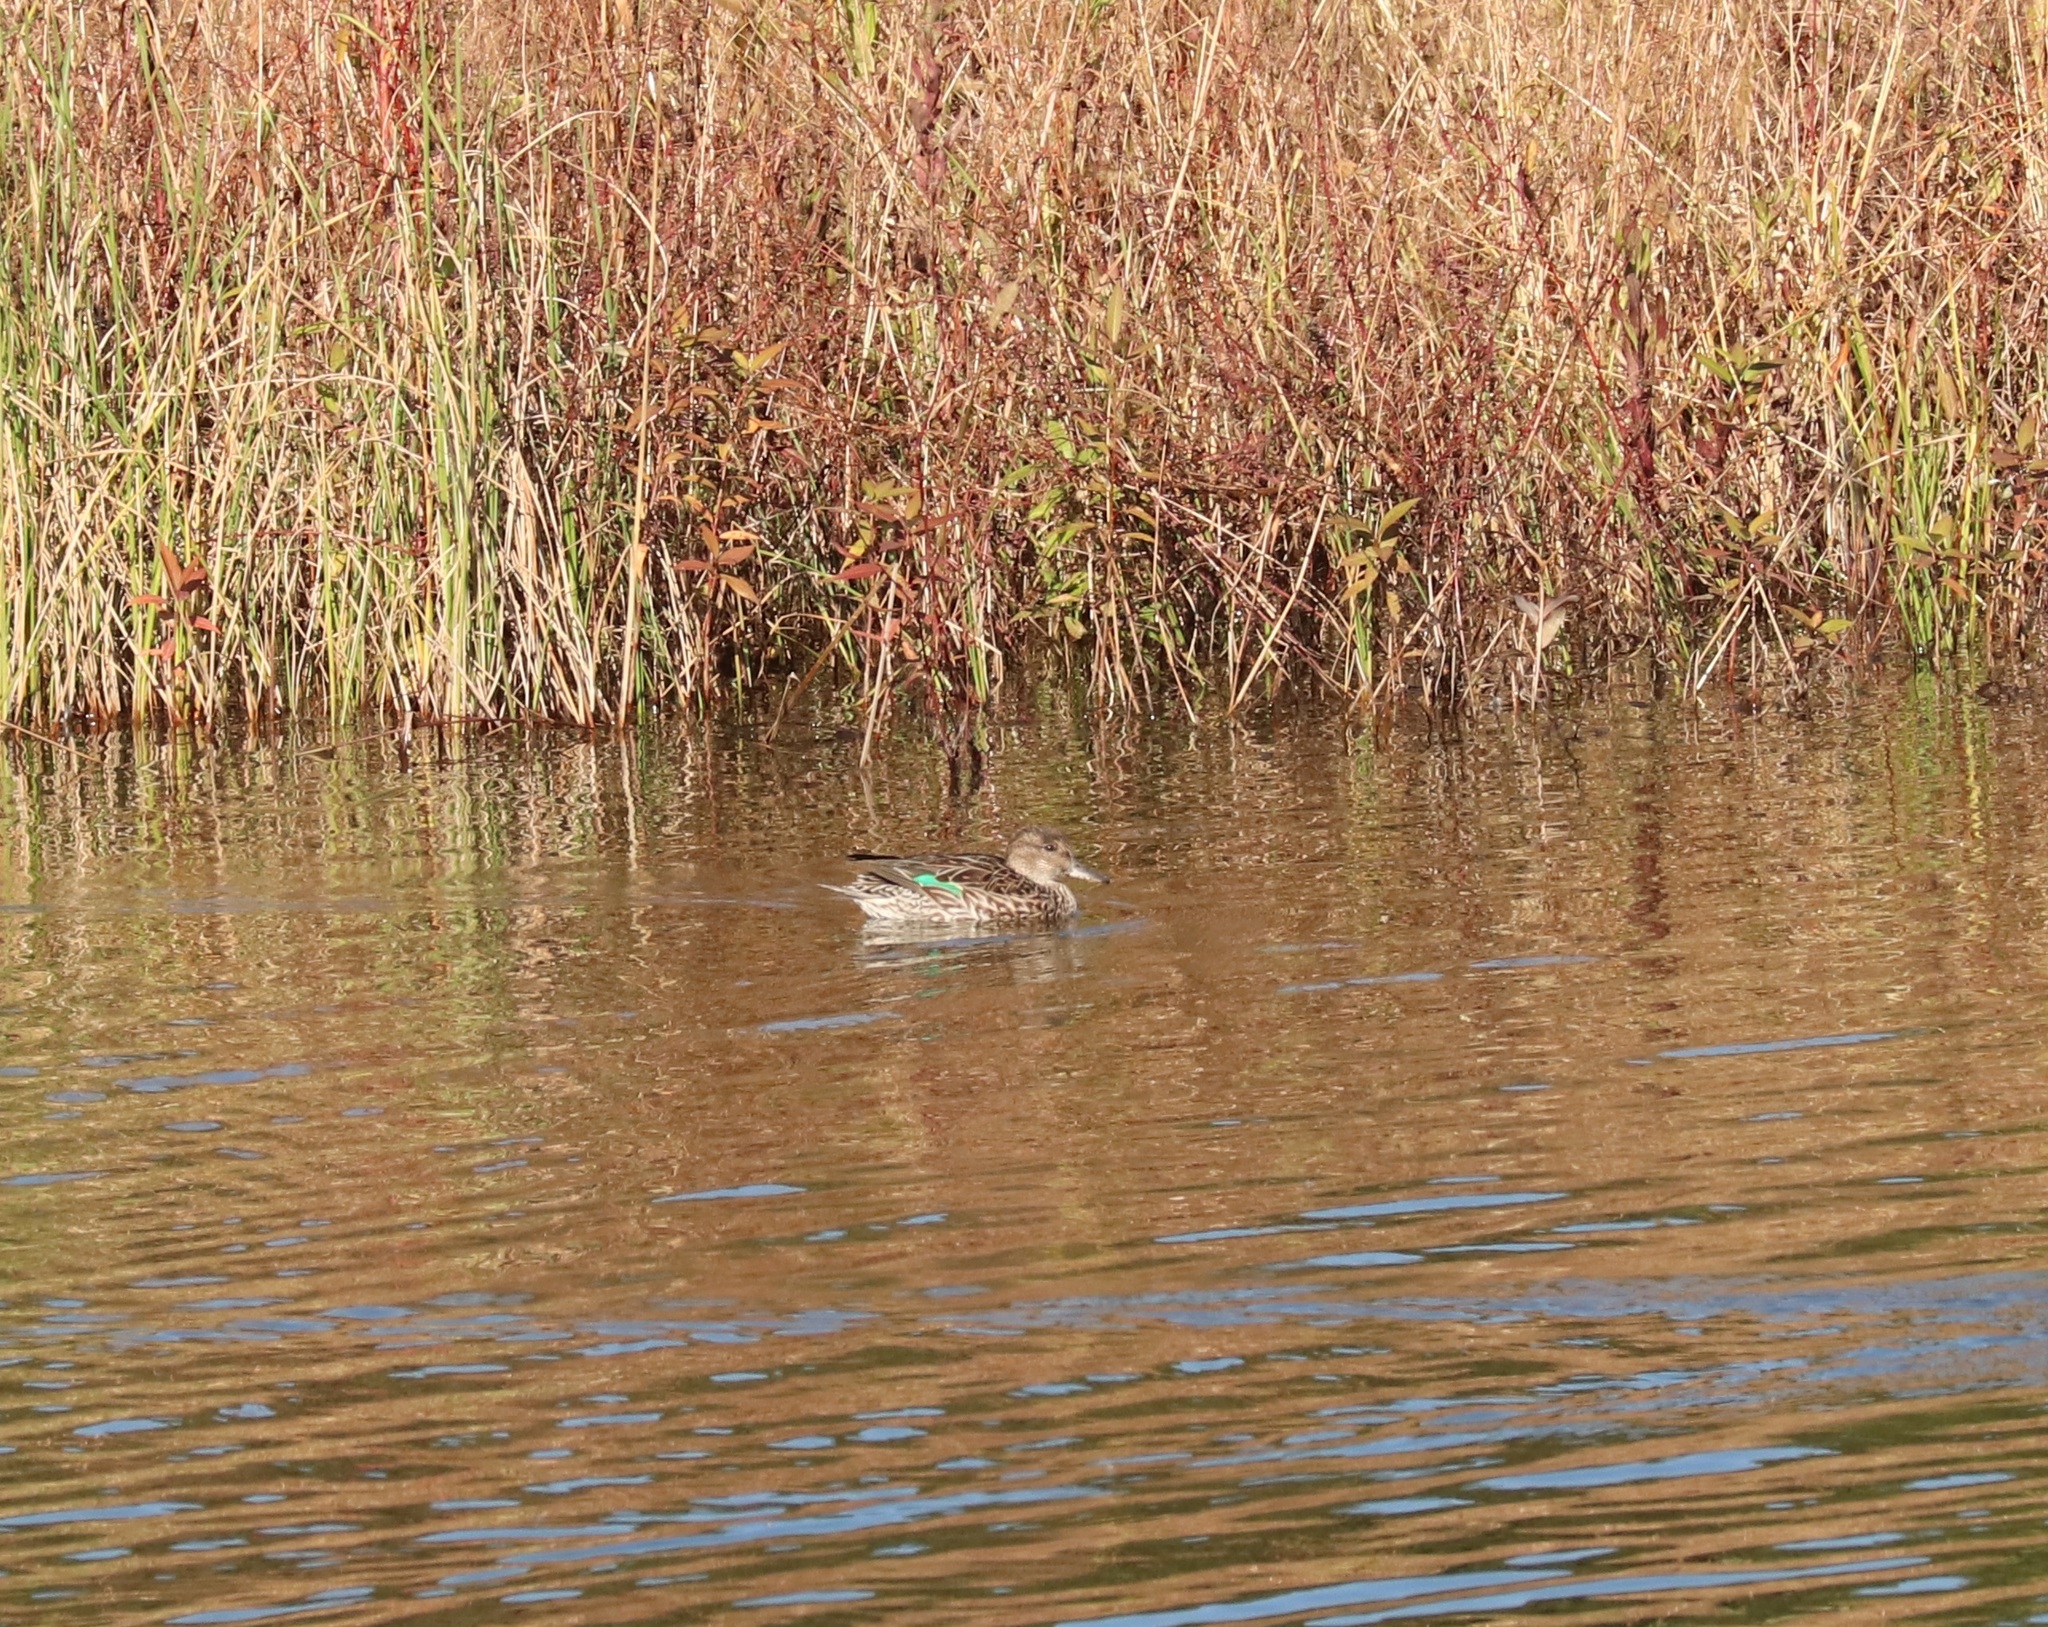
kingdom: Animalia
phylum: Chordata
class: Aves
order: Anseriformes
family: Anatidae
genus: Anas
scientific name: Anas crecca
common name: Eurasian teal
